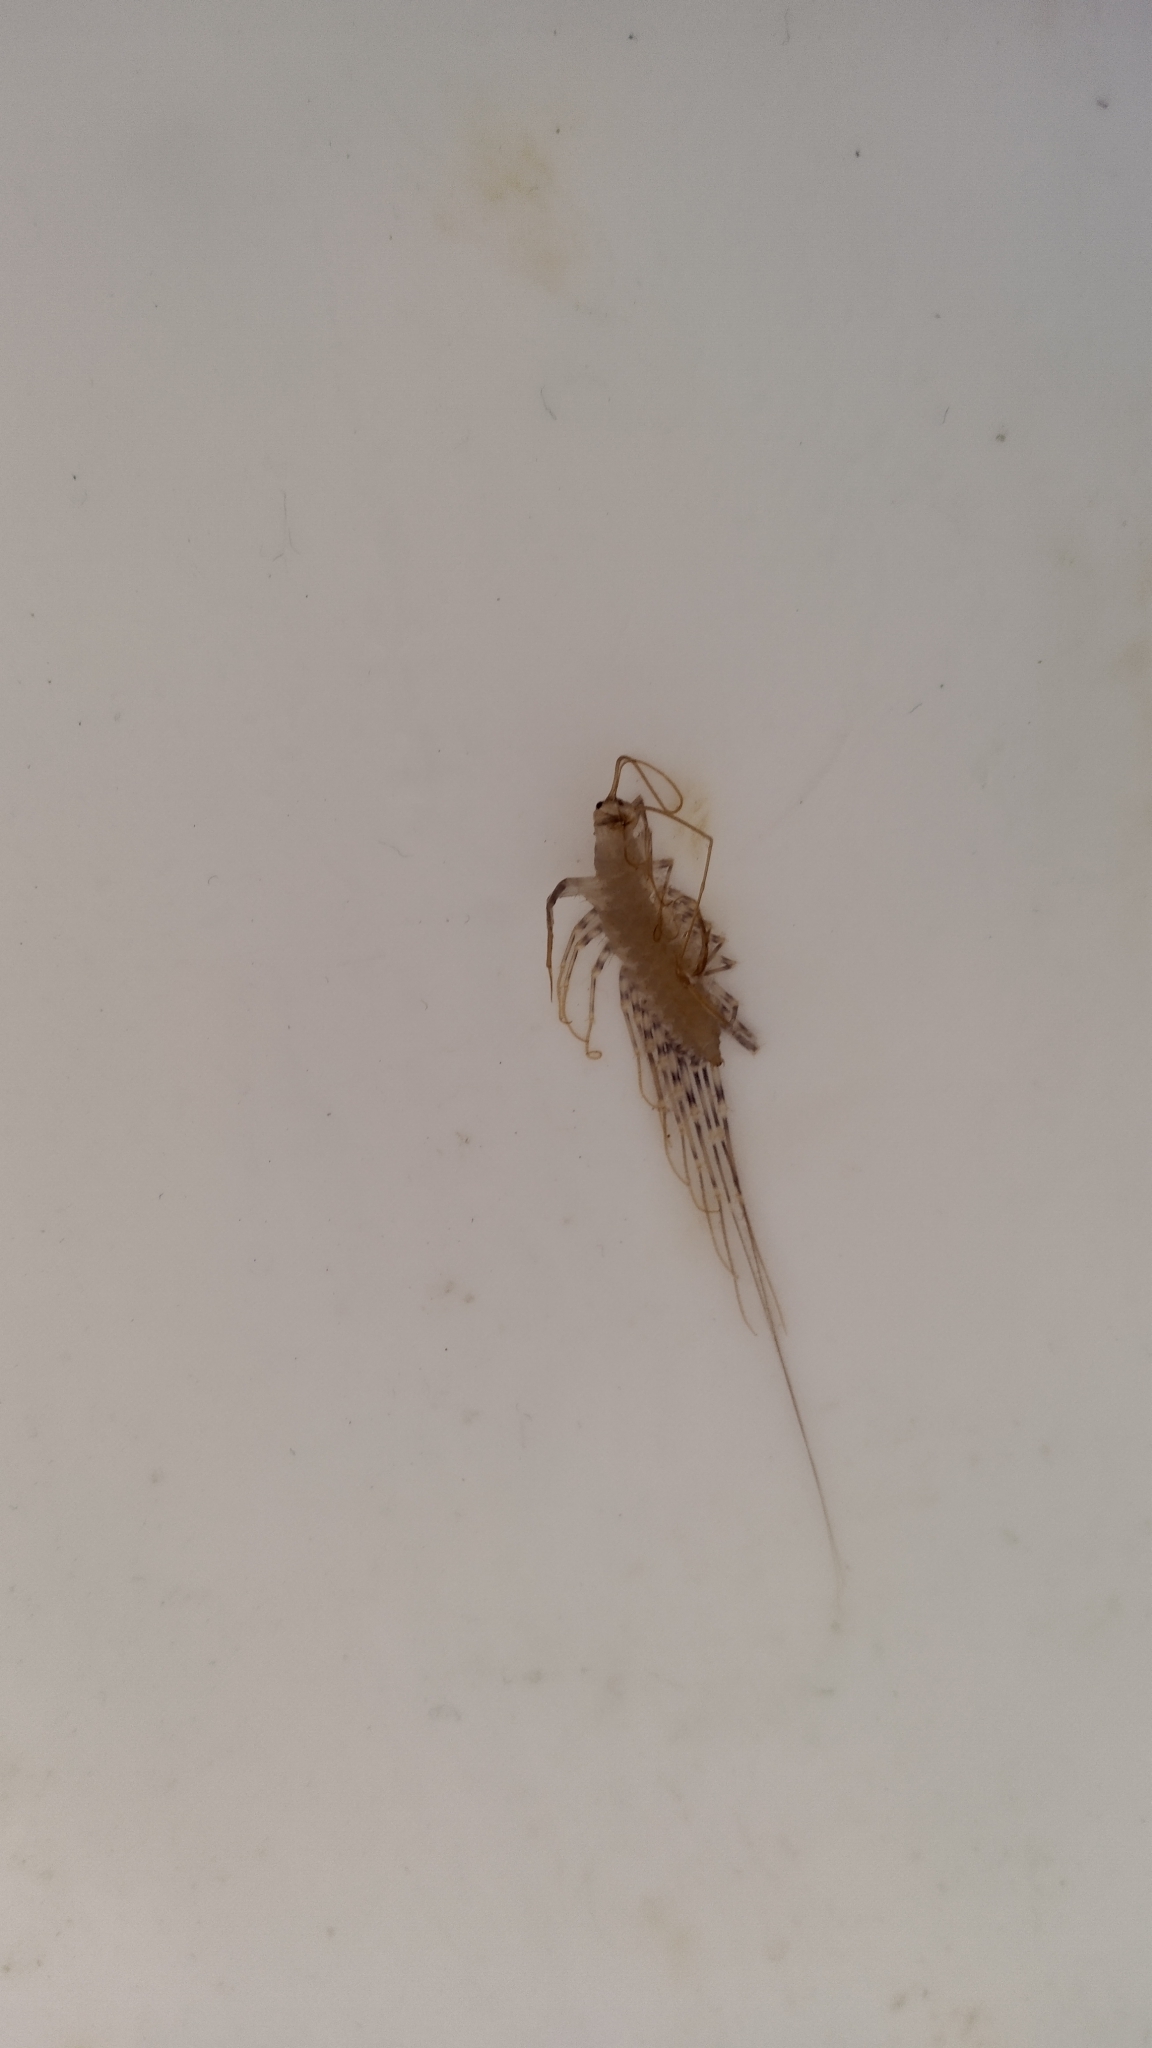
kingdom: Animalia
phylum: Arthropoda
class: Chilopoda
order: Scutigeromorpha
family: Scutigeridae
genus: Scutigera
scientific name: Scutigera coleoptrata
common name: House centipede
